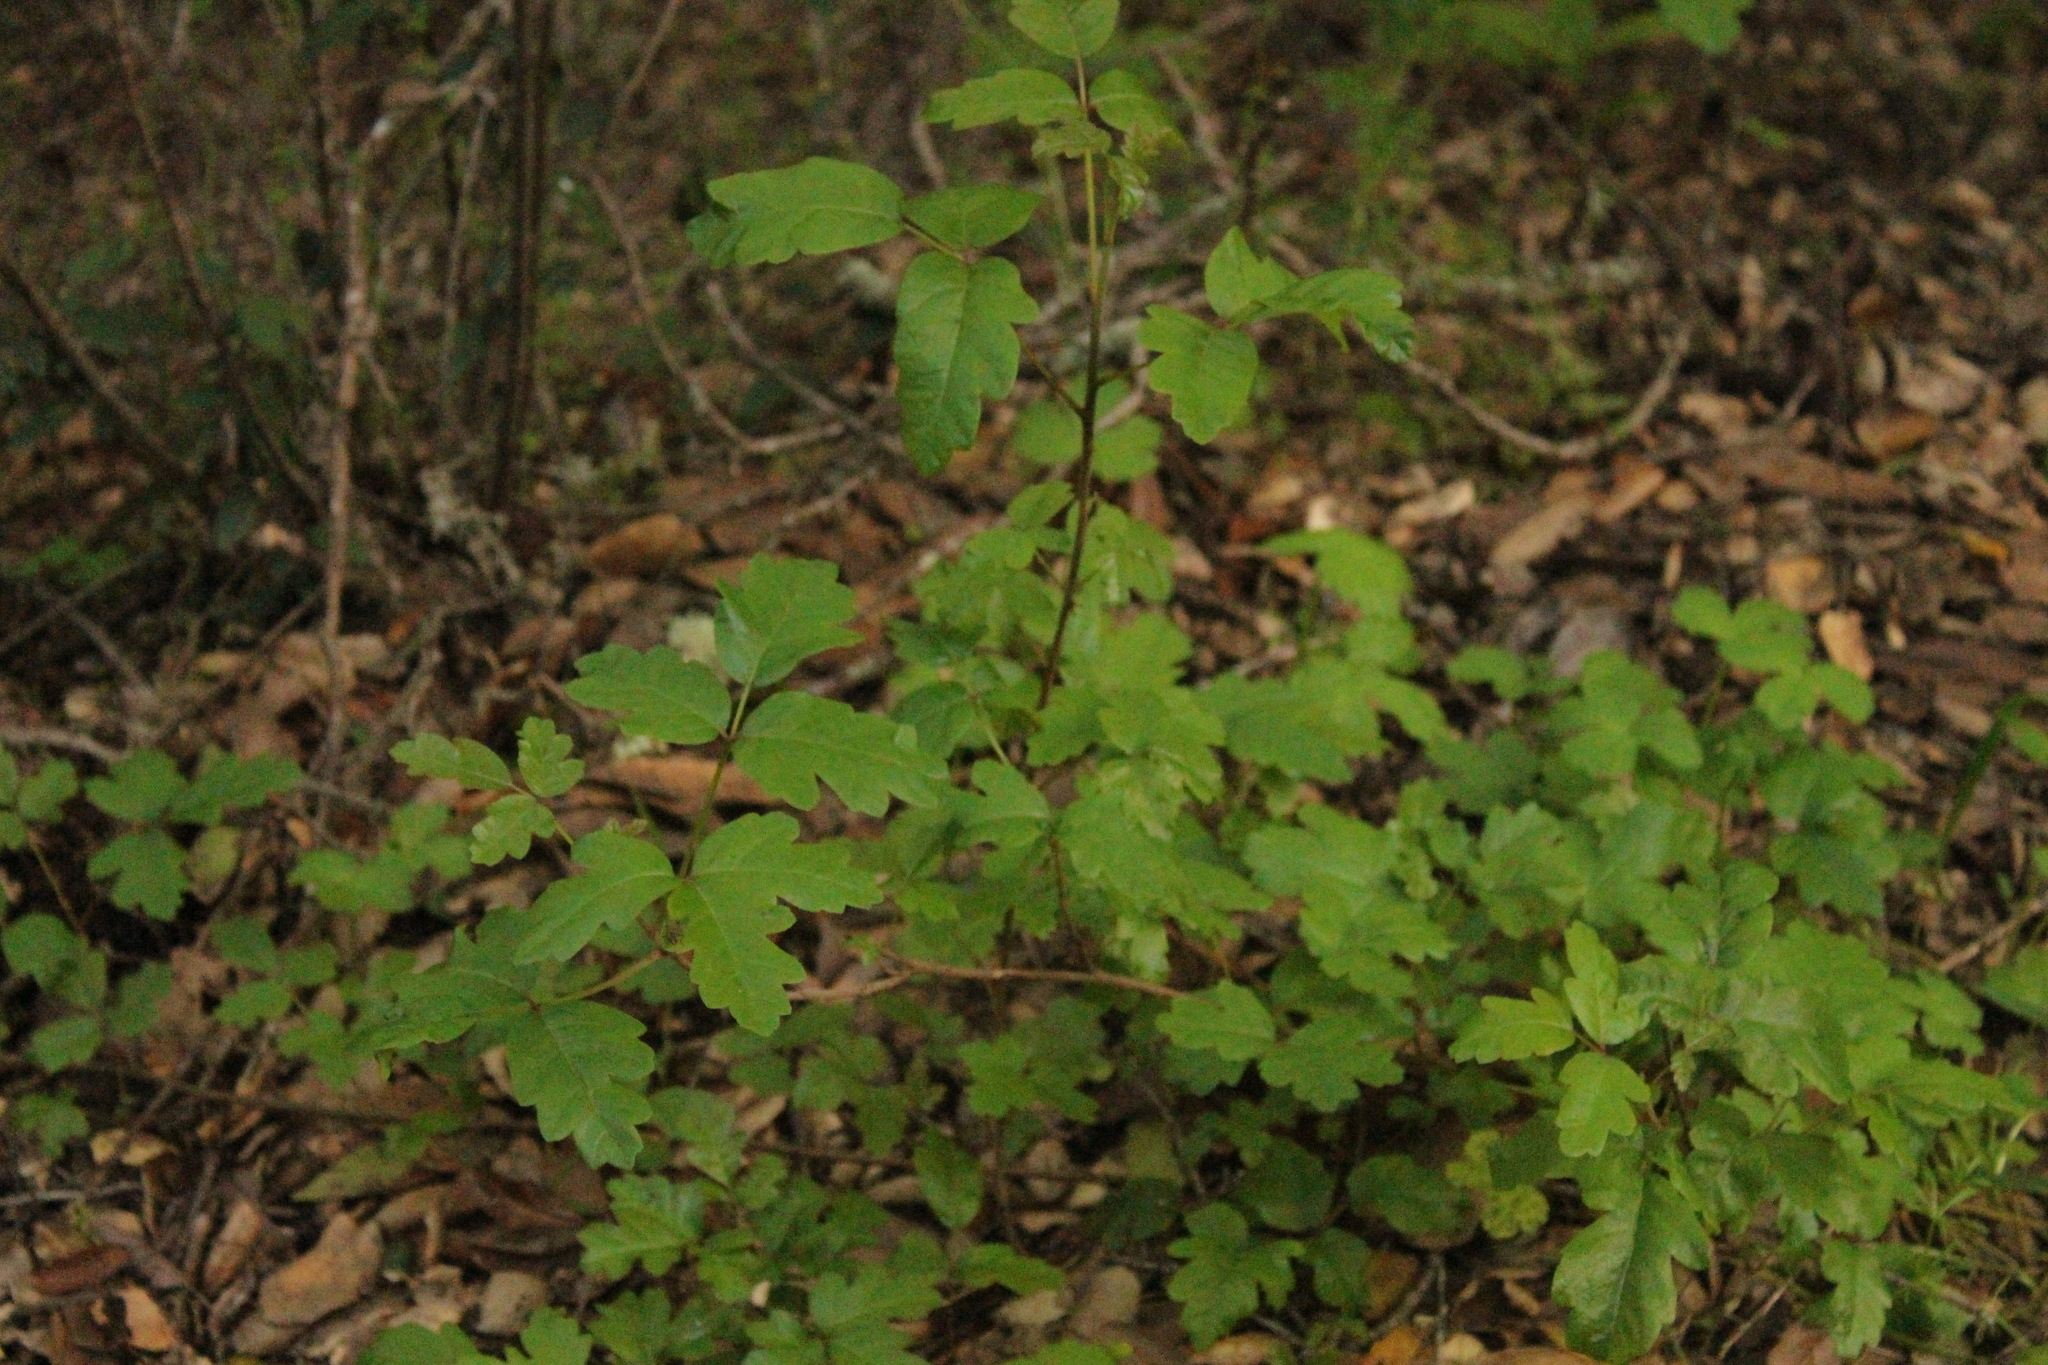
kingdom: Plantae
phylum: Tracheophyta
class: Magnoliopsida
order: Sapindales
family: Anacardiaceae
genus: Toxicodendron
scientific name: Toxicodendron diversilobum
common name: Pacific poison-oak
